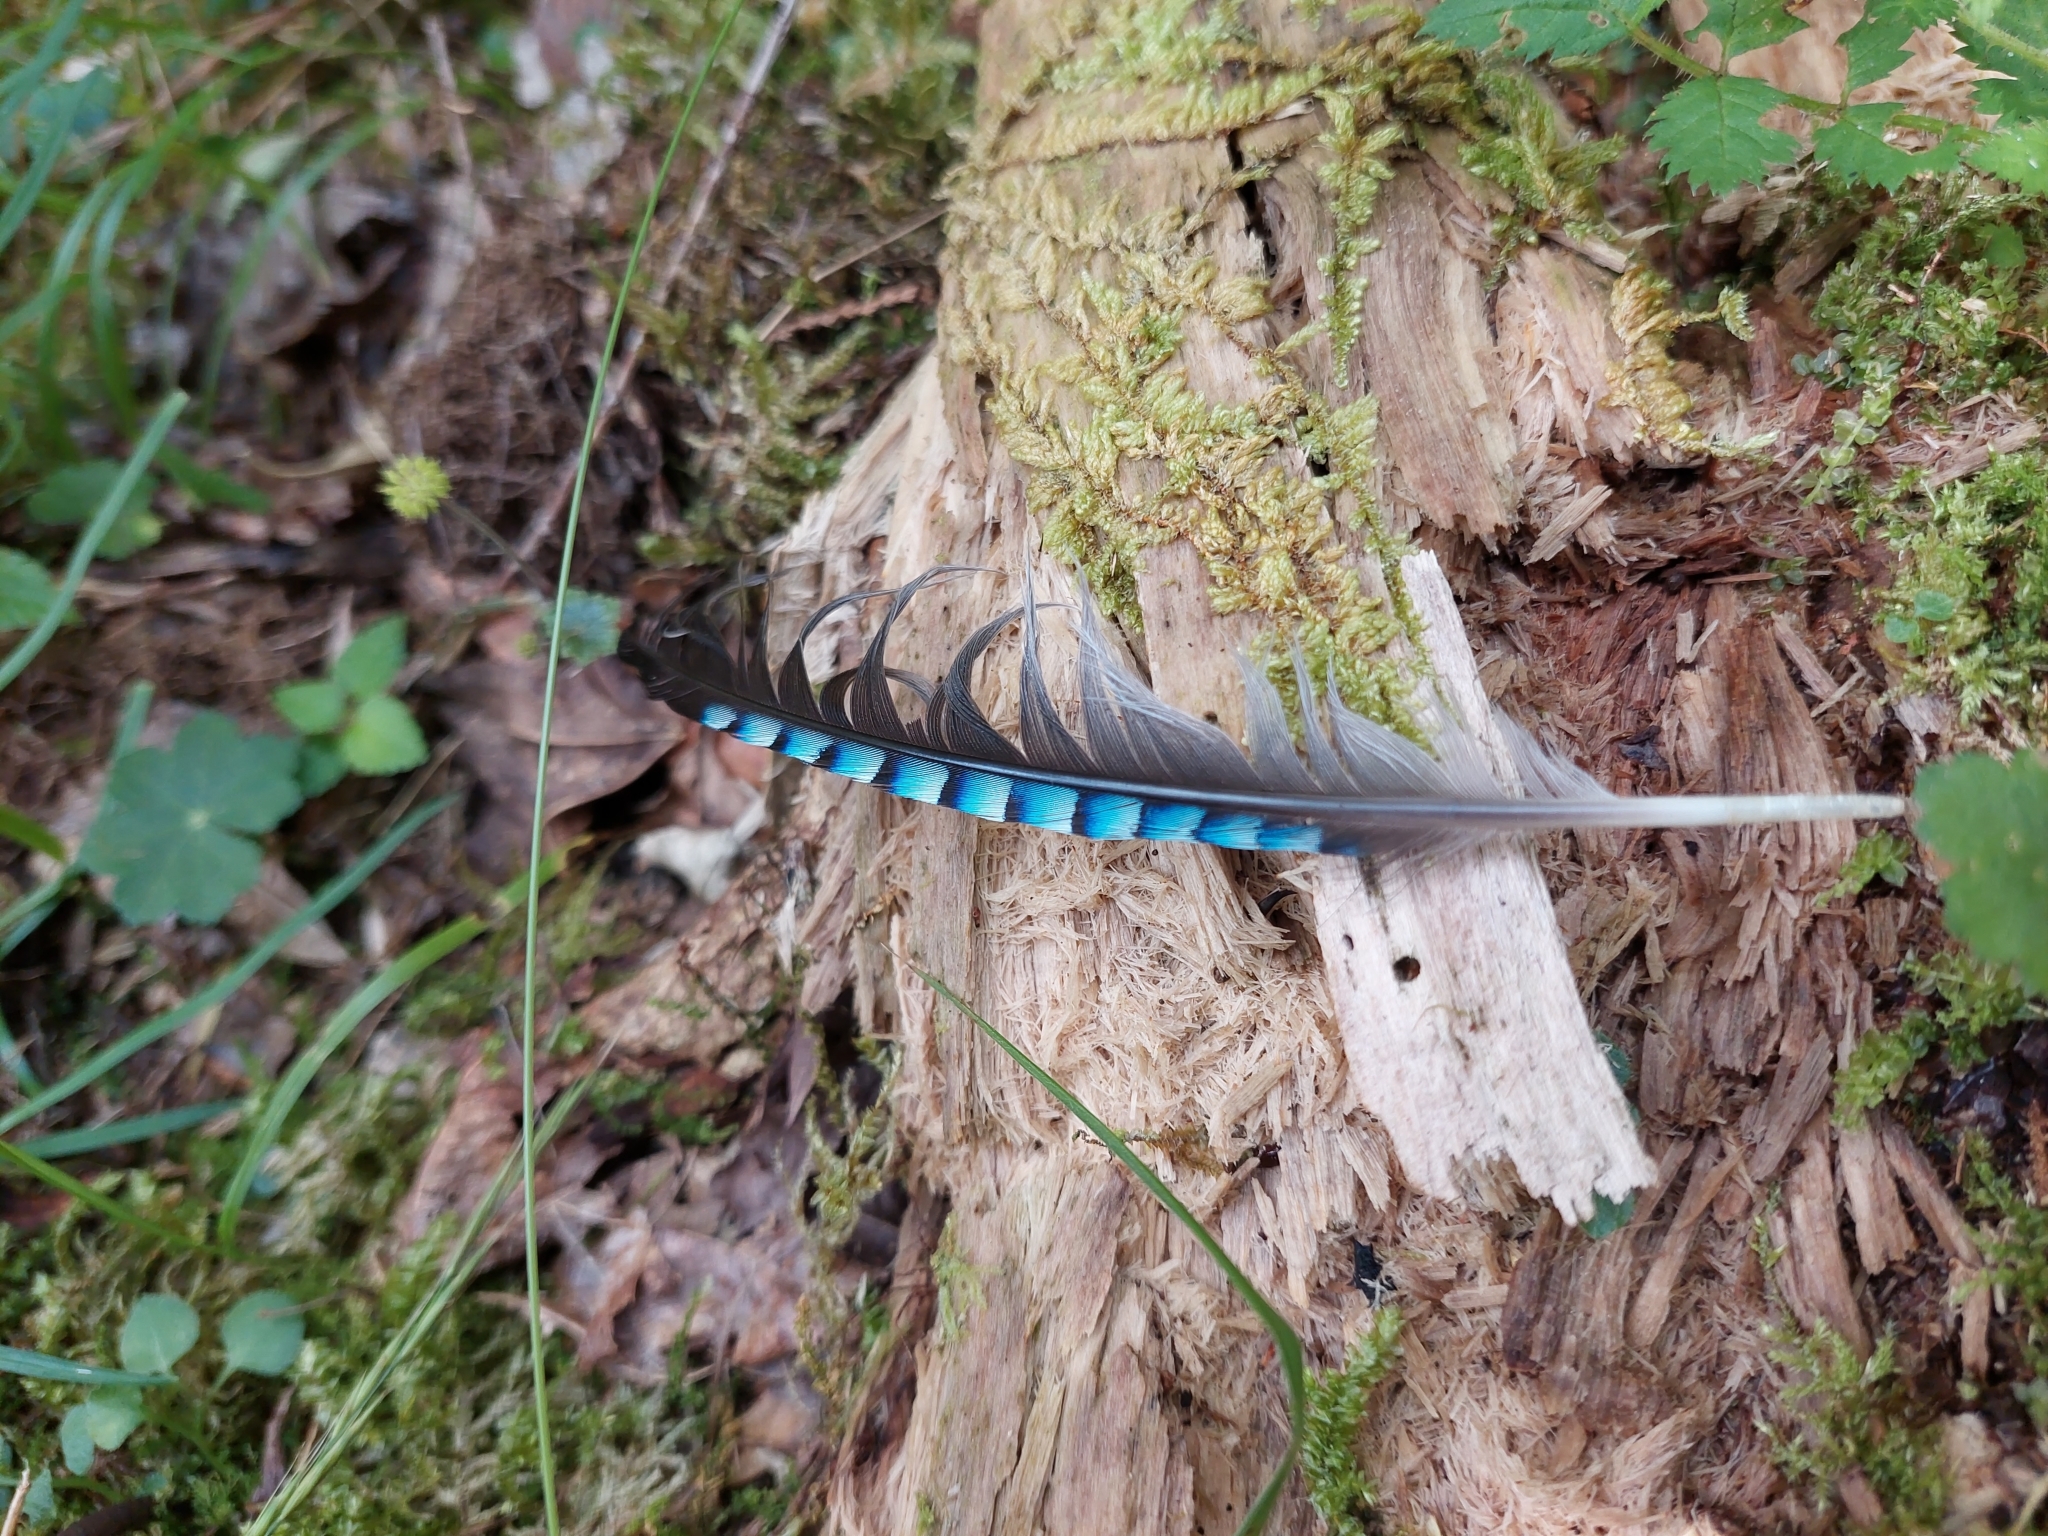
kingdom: Animalia
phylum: Chordata
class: Aves
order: Passeriformes
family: Corvidae
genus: Garrulus
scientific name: Garrulus glandarius
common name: Eurasian jay
